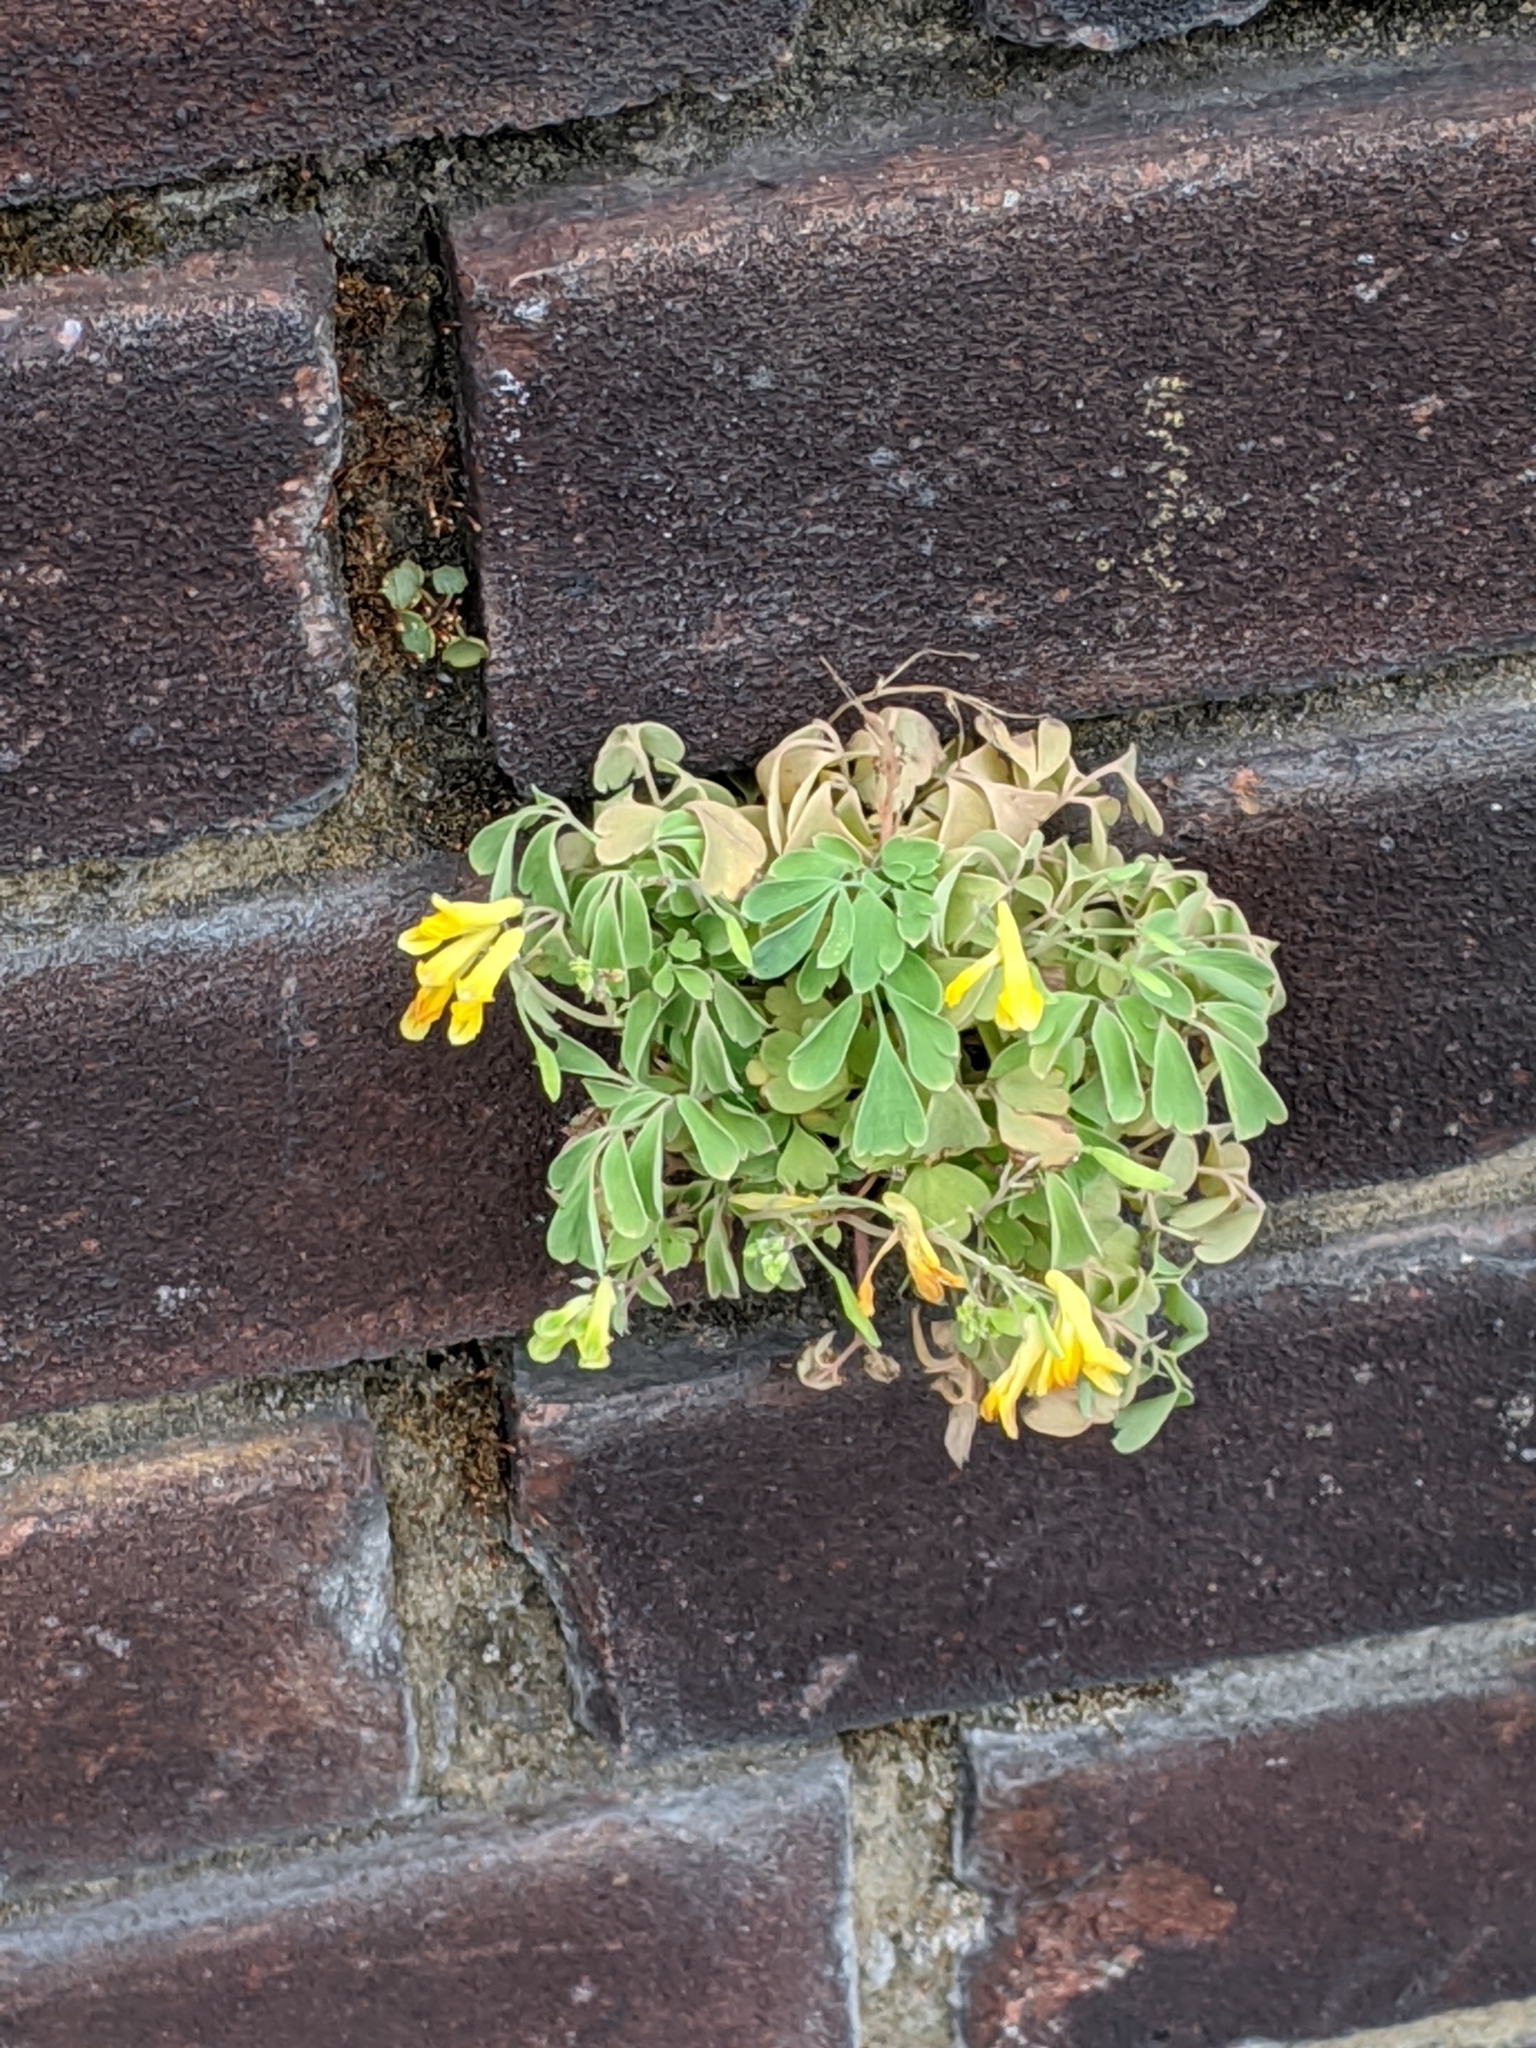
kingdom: Plantae
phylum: Tracheophyta
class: Magnoliopsida
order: Ranunculales
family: Papaveraceae
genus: Pseudofumaria
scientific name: Pseudofumaria lutea
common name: Yellow corydalis
